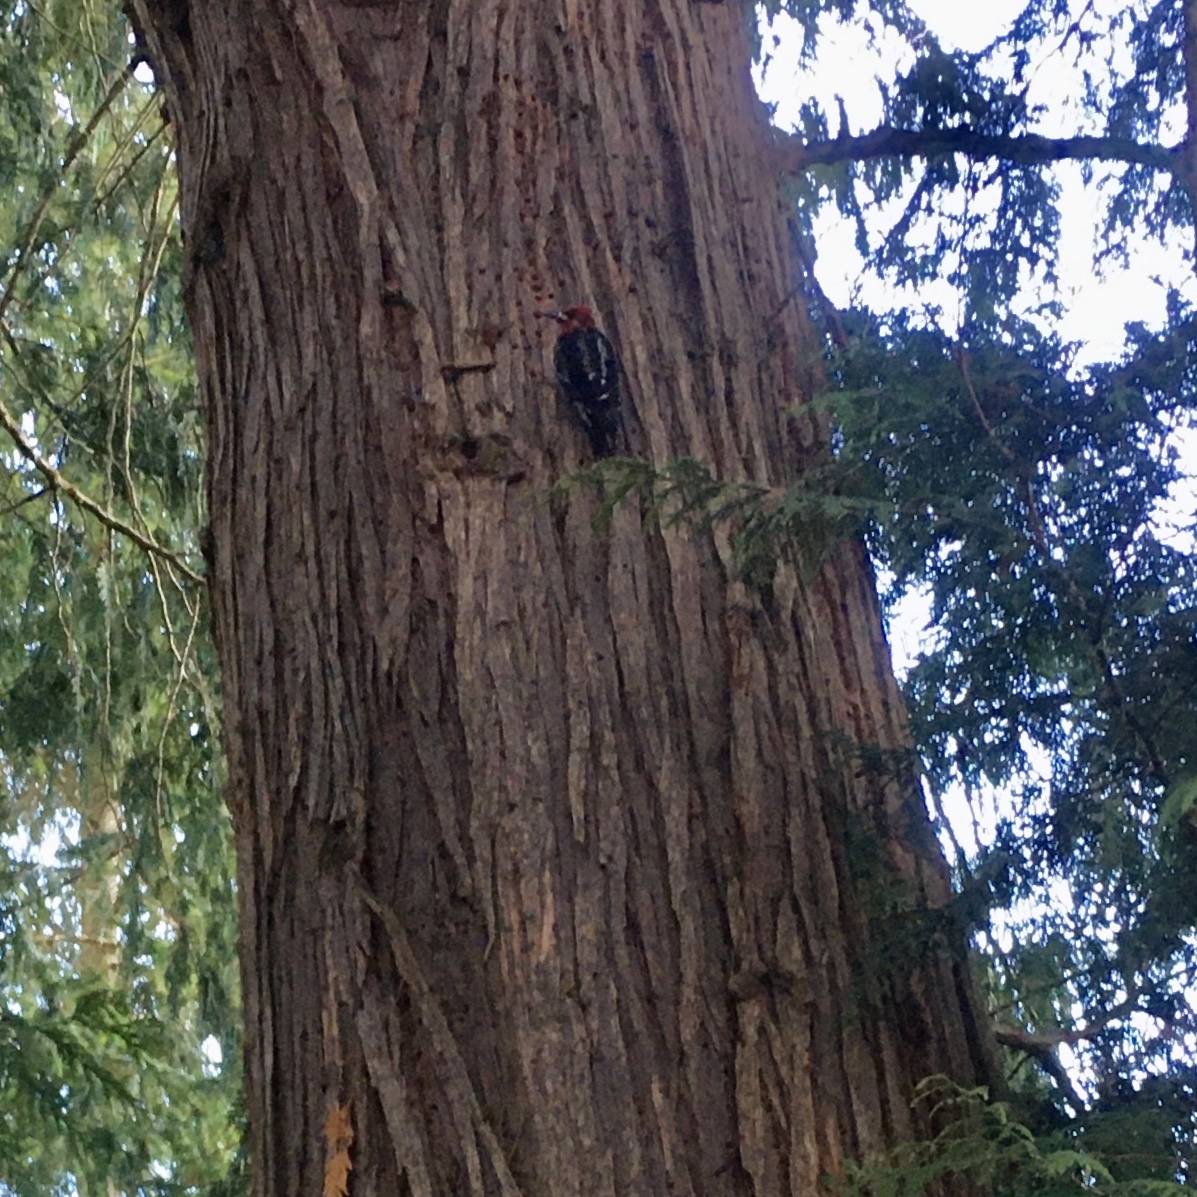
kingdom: Animalia
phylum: Chordata
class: Aves
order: Piciformes
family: Picidae
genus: Sphyrapicus
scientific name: Sphyrapicus ruber
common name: Red-breasted sapsucker
